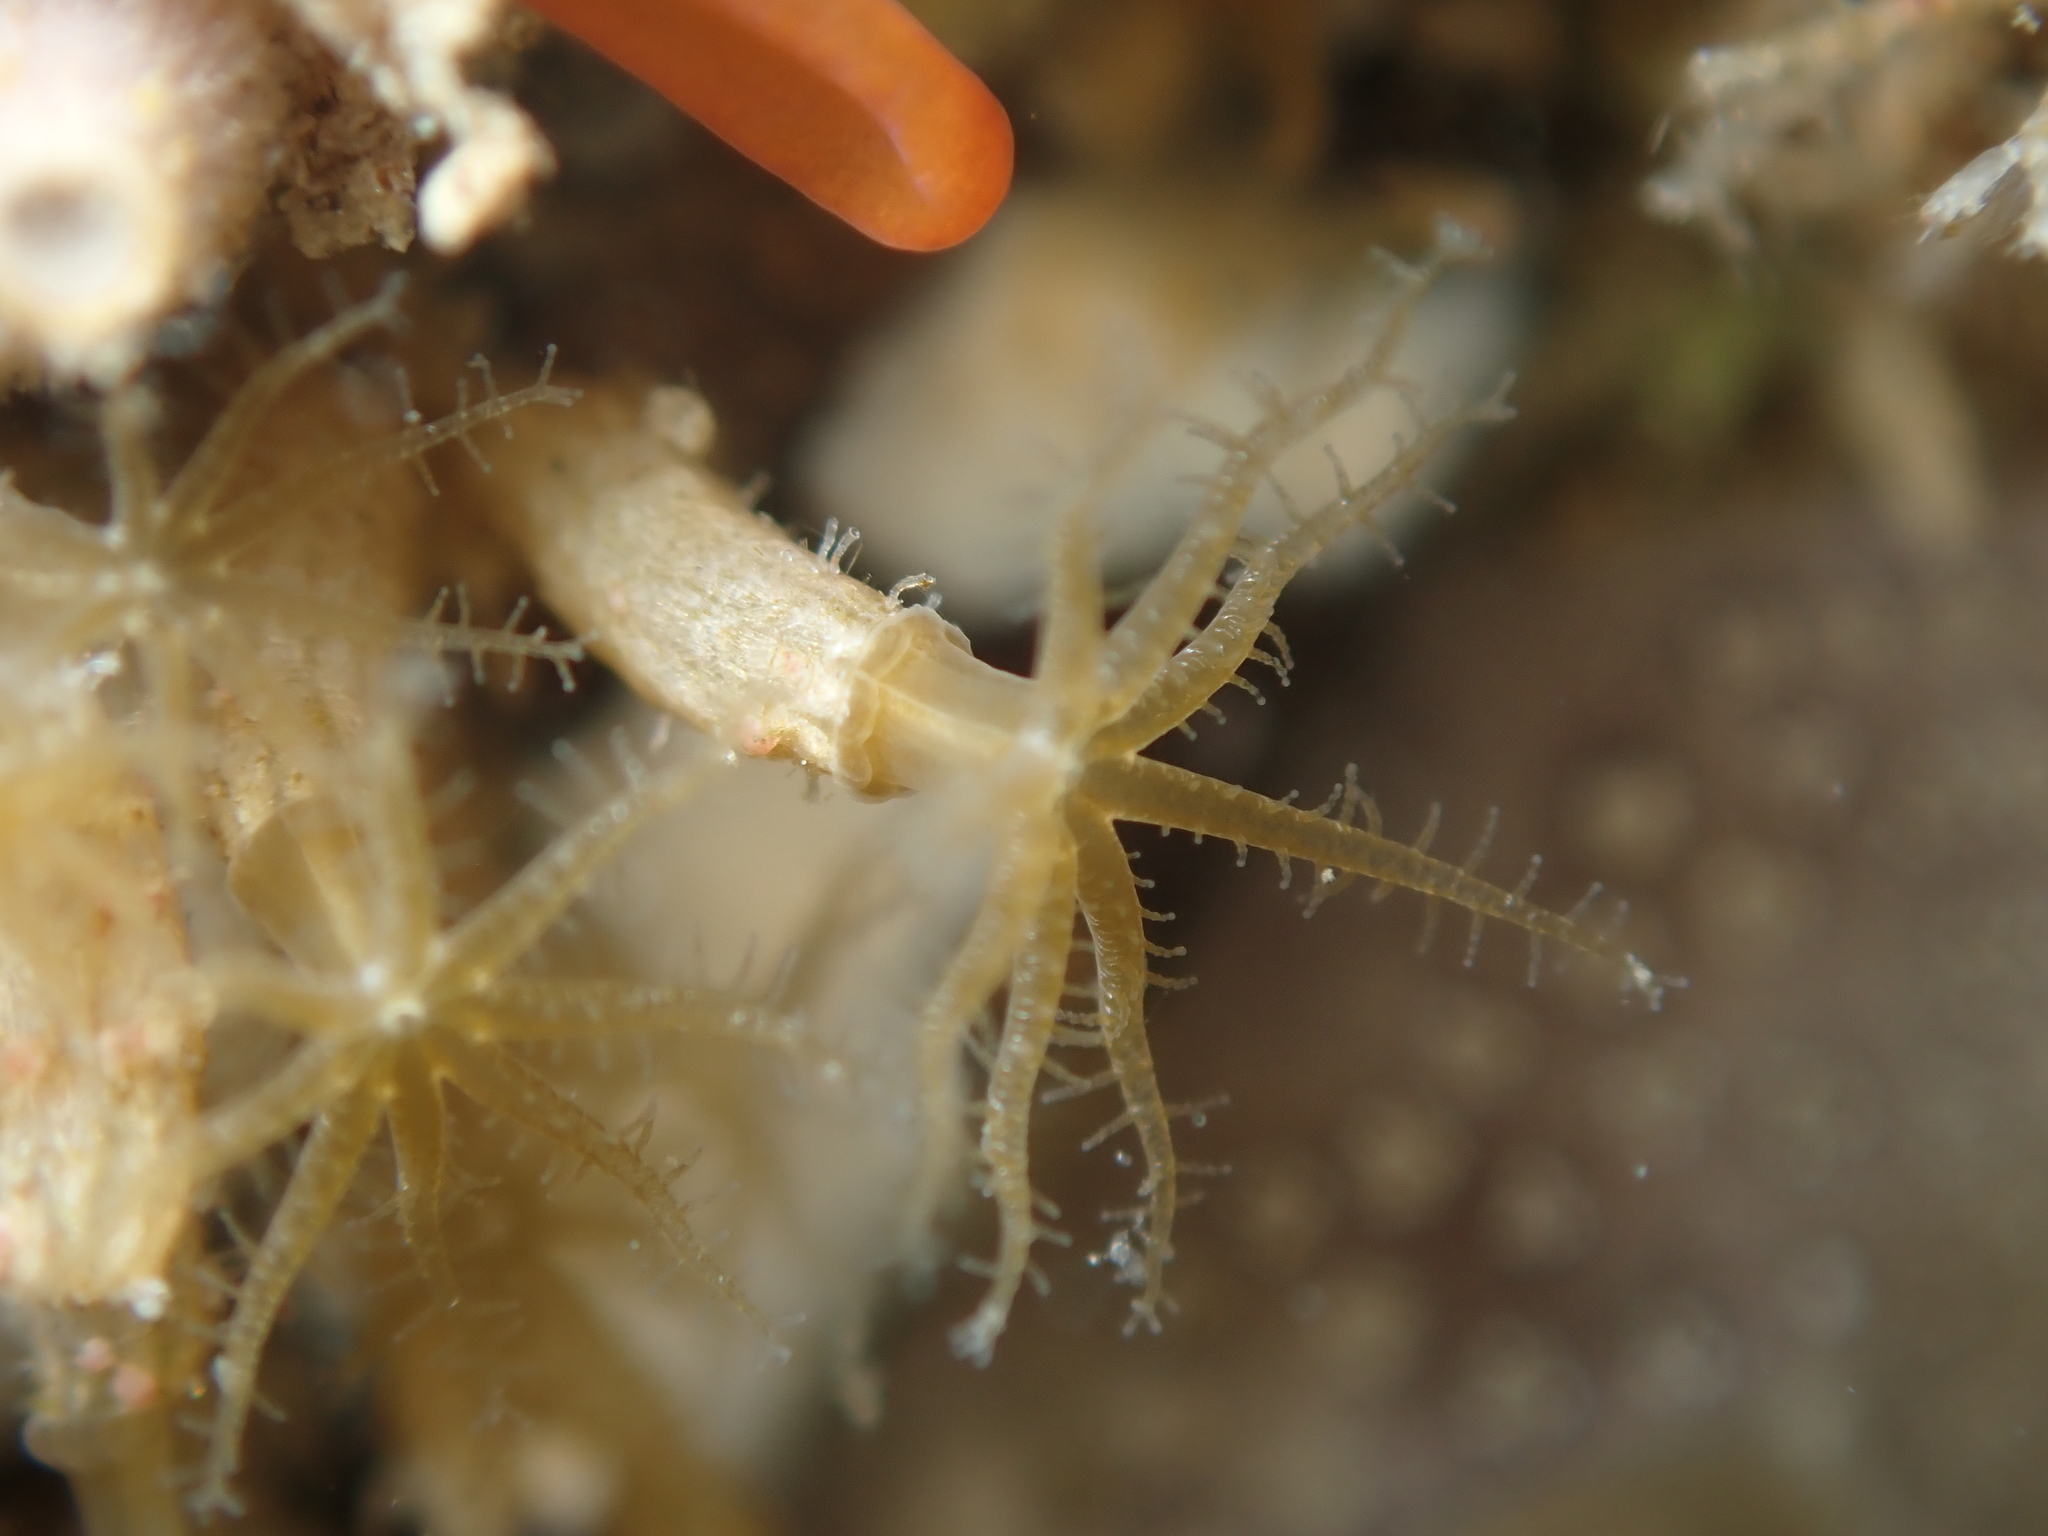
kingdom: Animalia
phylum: Cnidaria
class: Anthozoa
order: Malacalcyonacea
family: Clavulariidae
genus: Clavularia
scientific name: Clavularia novaezealandiae
